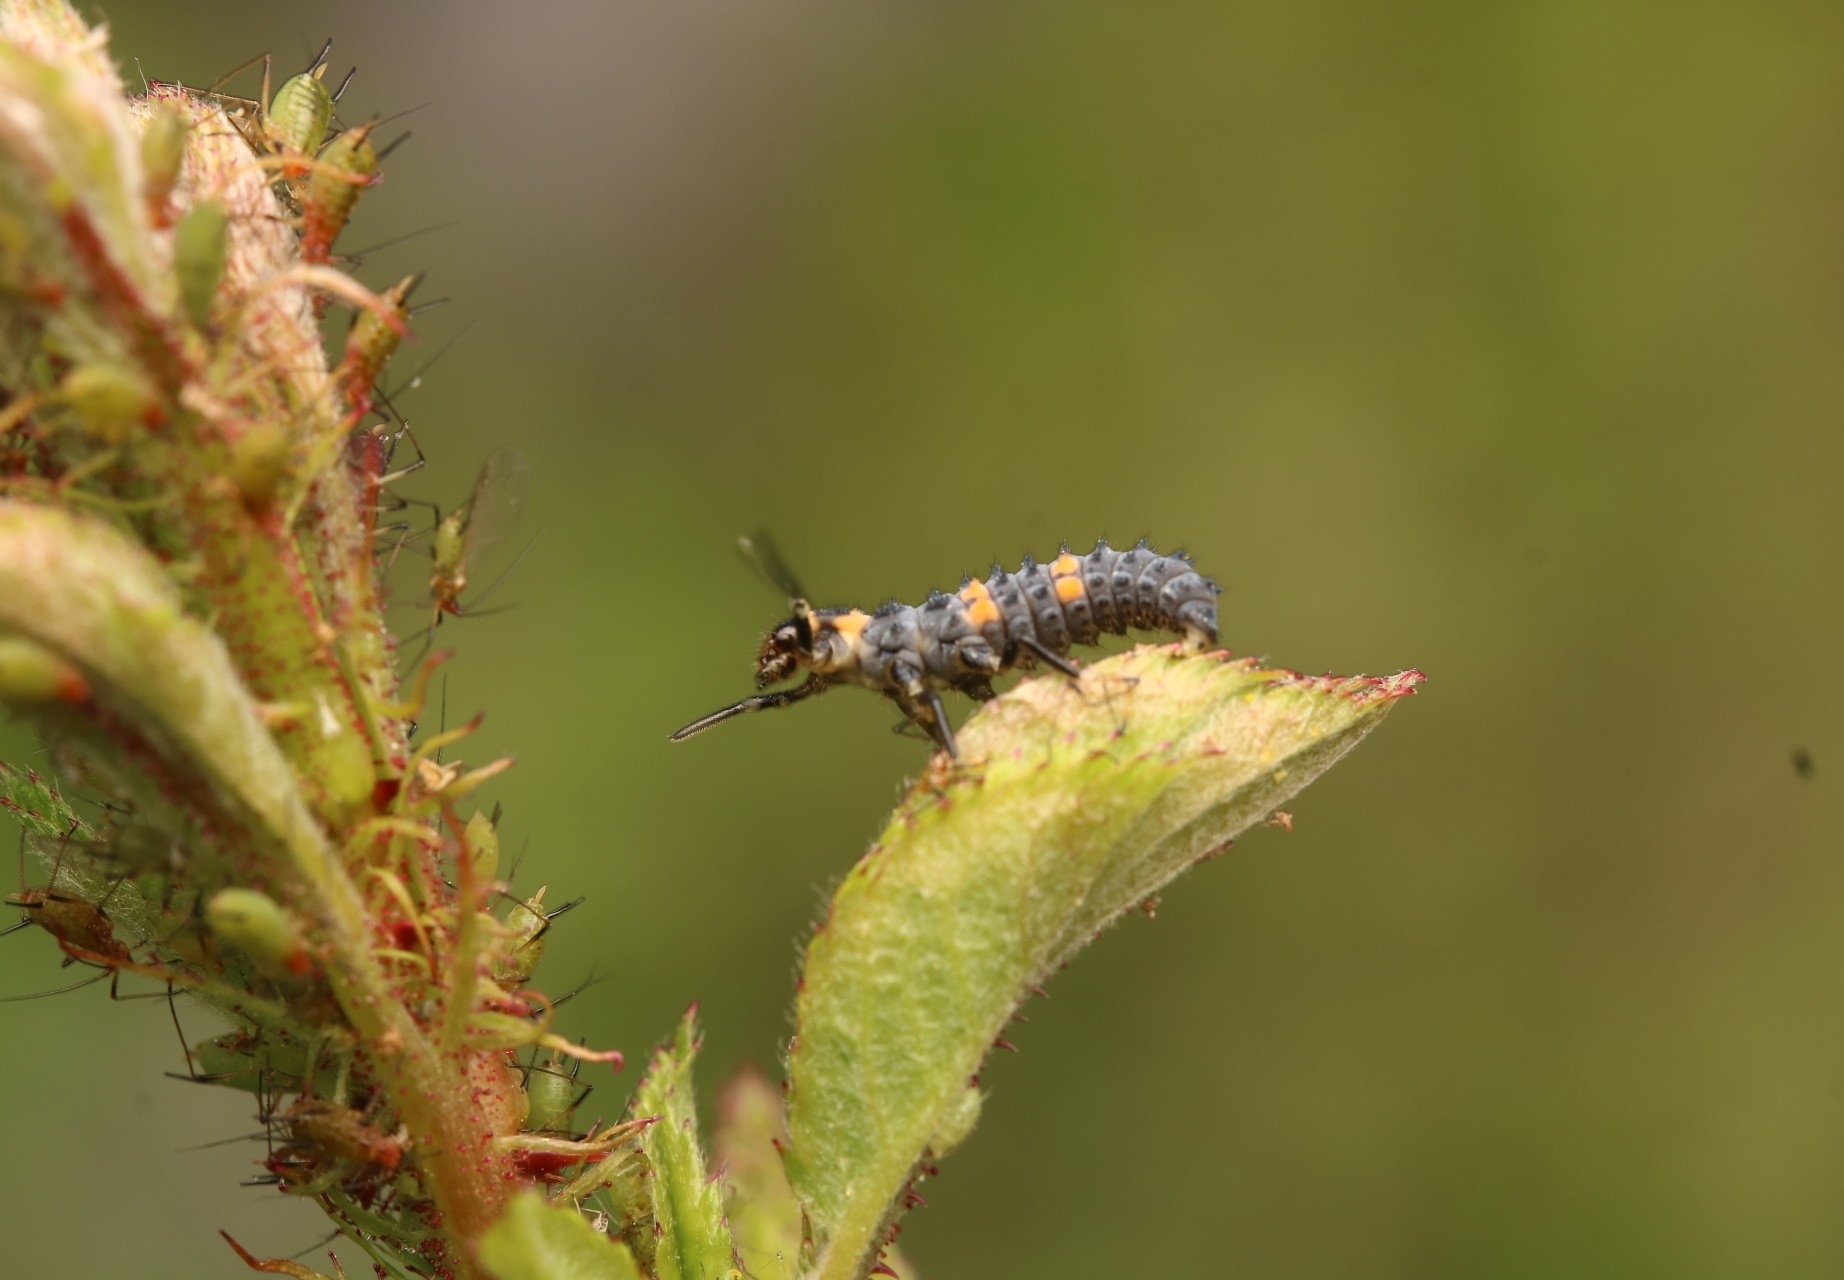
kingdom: Animalia
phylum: Arthropoda
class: Insecta
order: Coleoptera
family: Coccinellidae
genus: Coccinella
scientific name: Coccinella septempunctata
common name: Sevenspotted lady beetle
